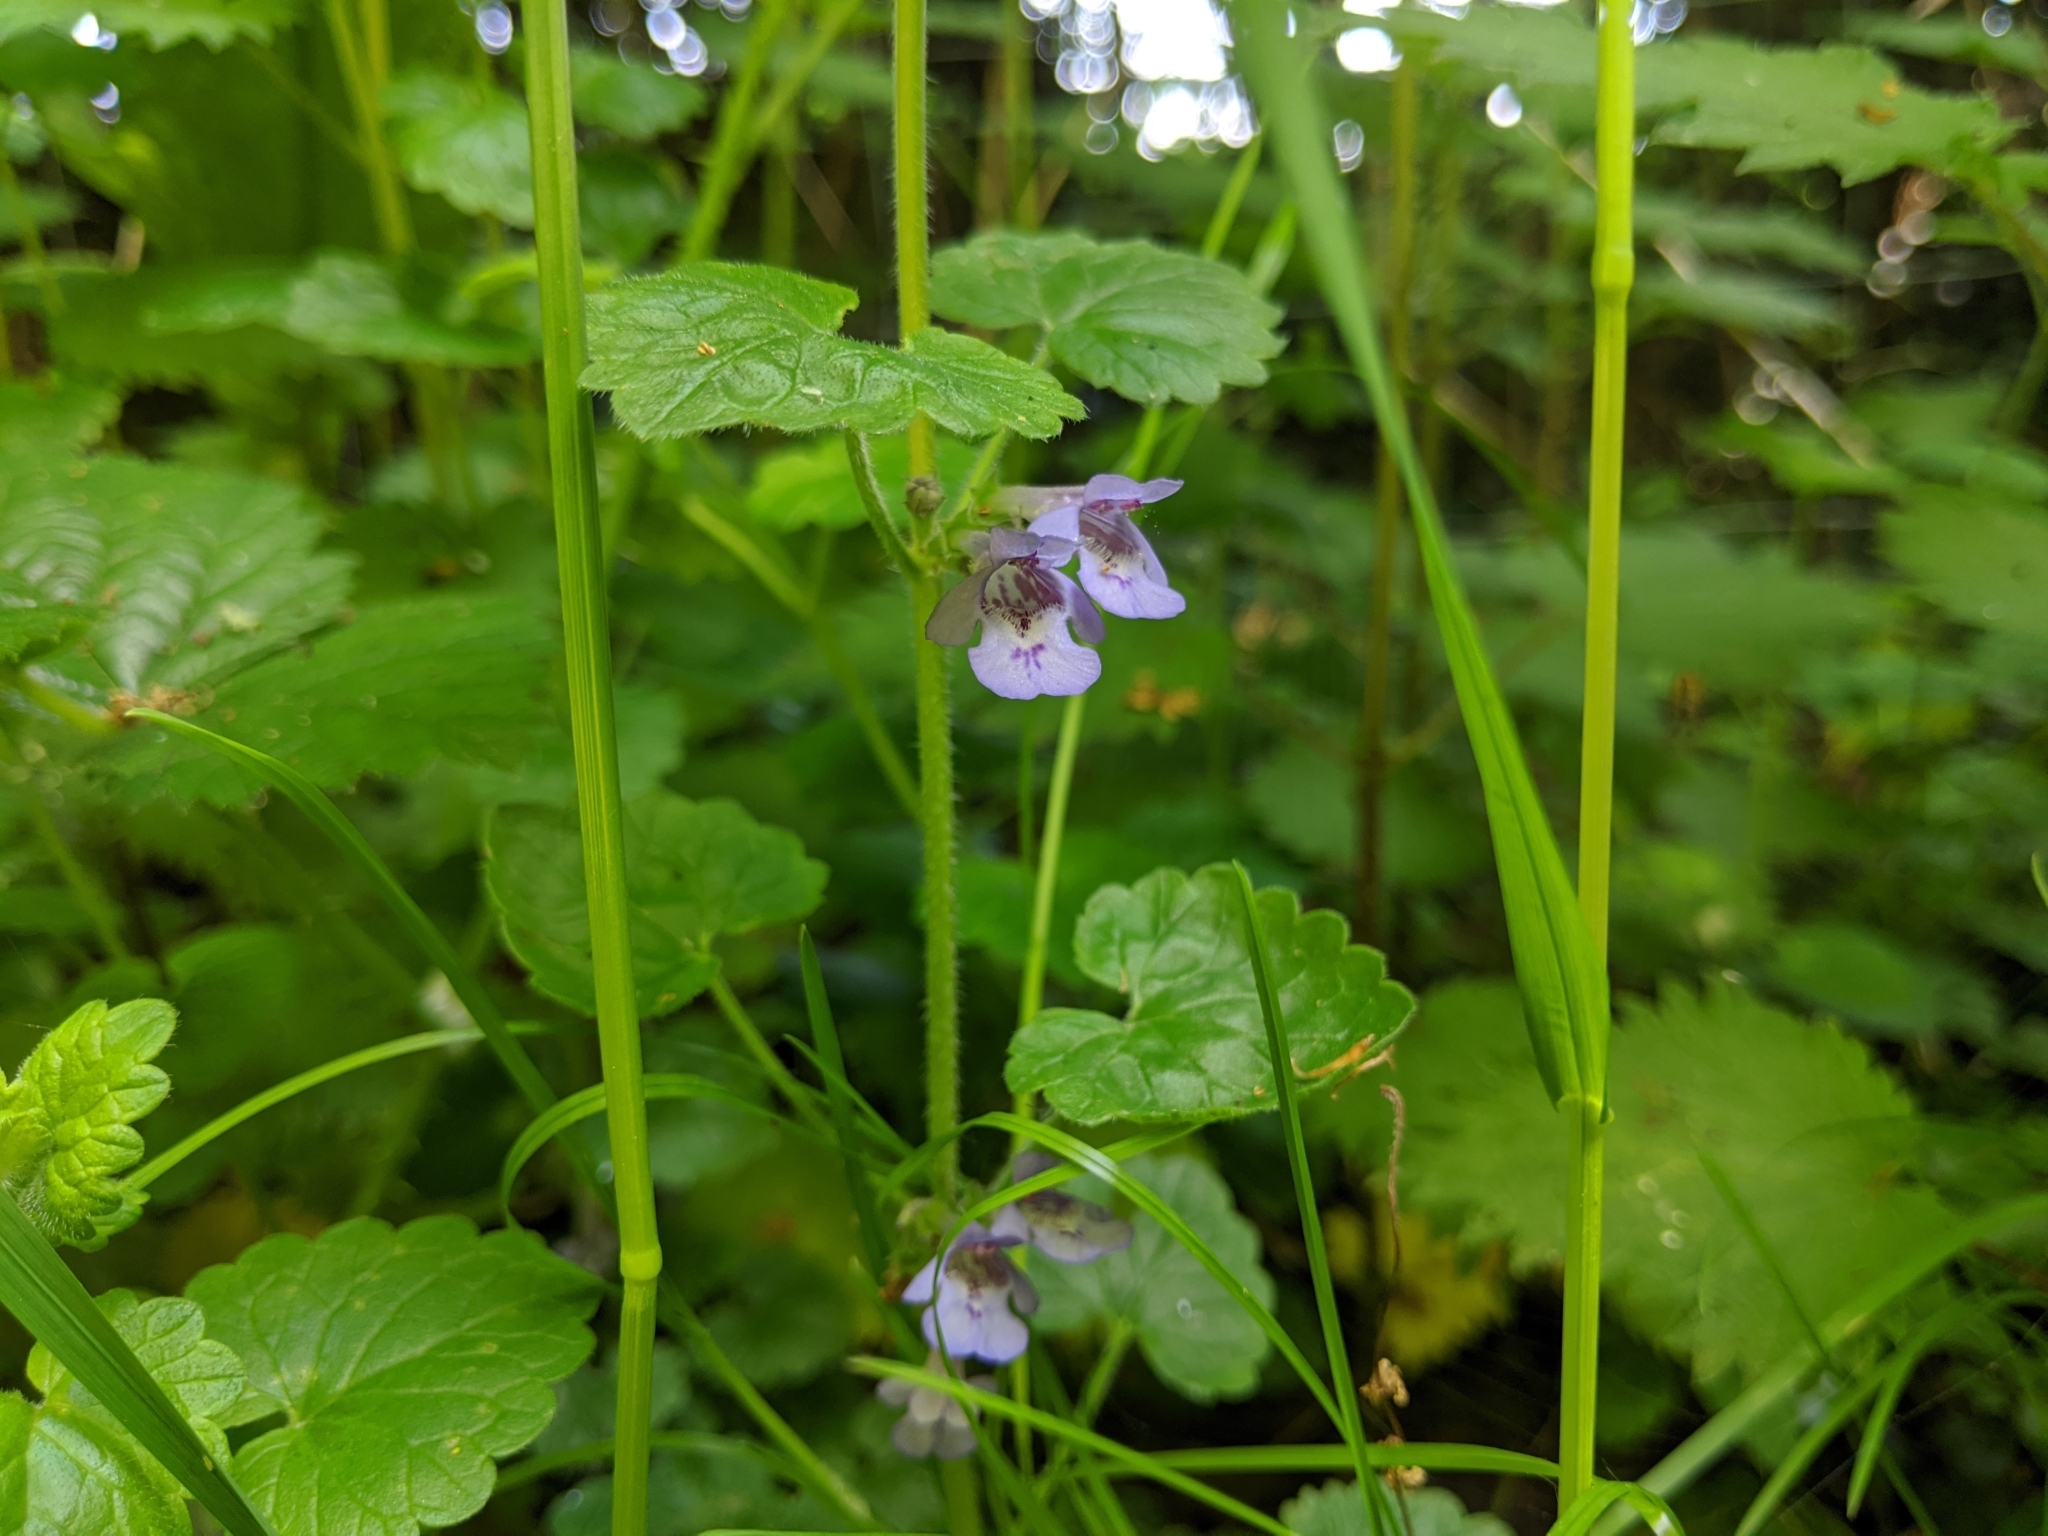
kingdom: Plantae
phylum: Tracheophyta
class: Magnoliopsida
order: Lamiales
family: Lamiaceae
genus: Glechoma
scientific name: Glechoma hederacea
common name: Ground ivy
